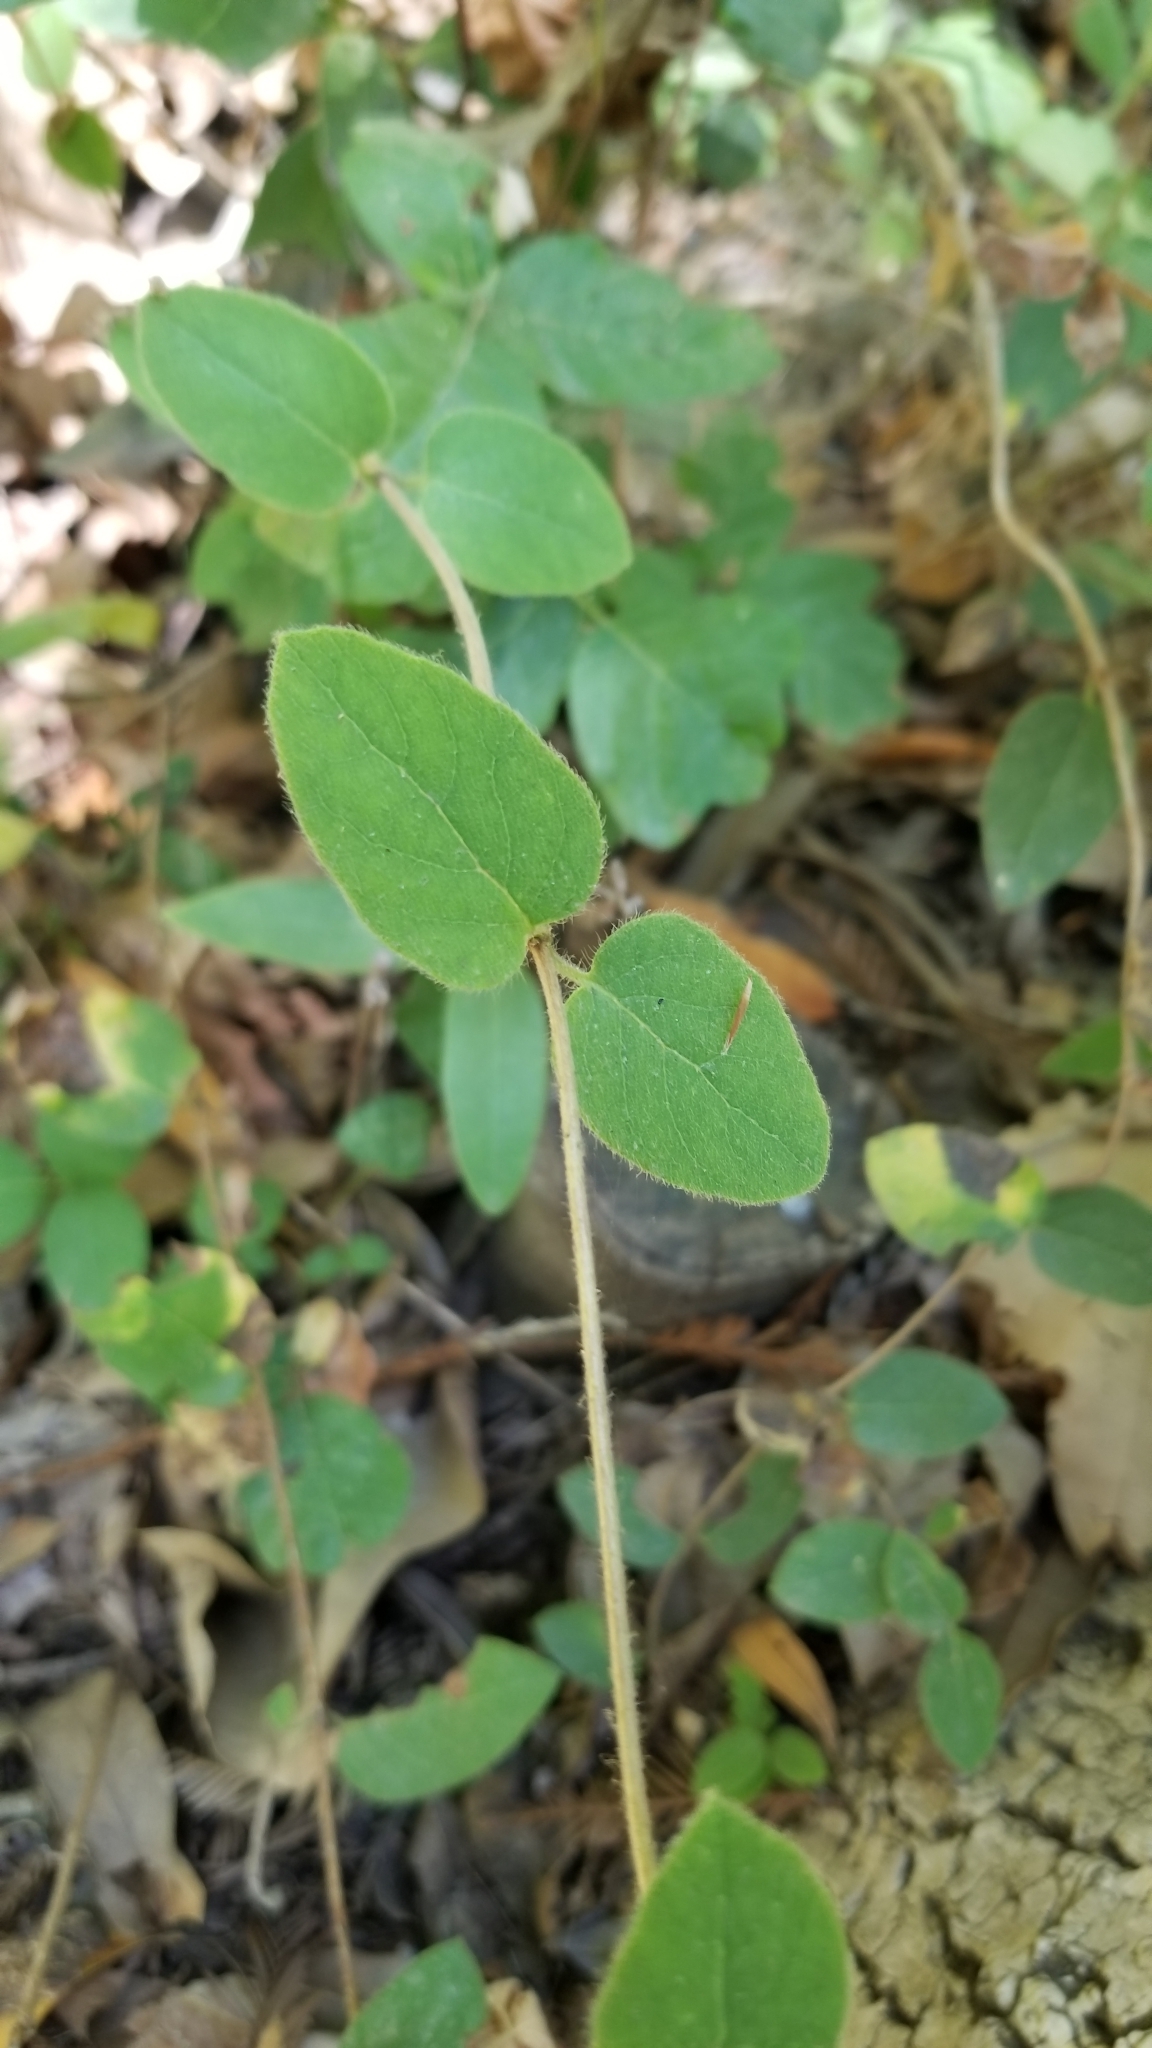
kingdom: Plantae
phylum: Tracheophyta
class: Magnoliopsida
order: Dipsacales
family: Caprifoliaceae
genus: Lonicera
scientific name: Lonicera hispidula
